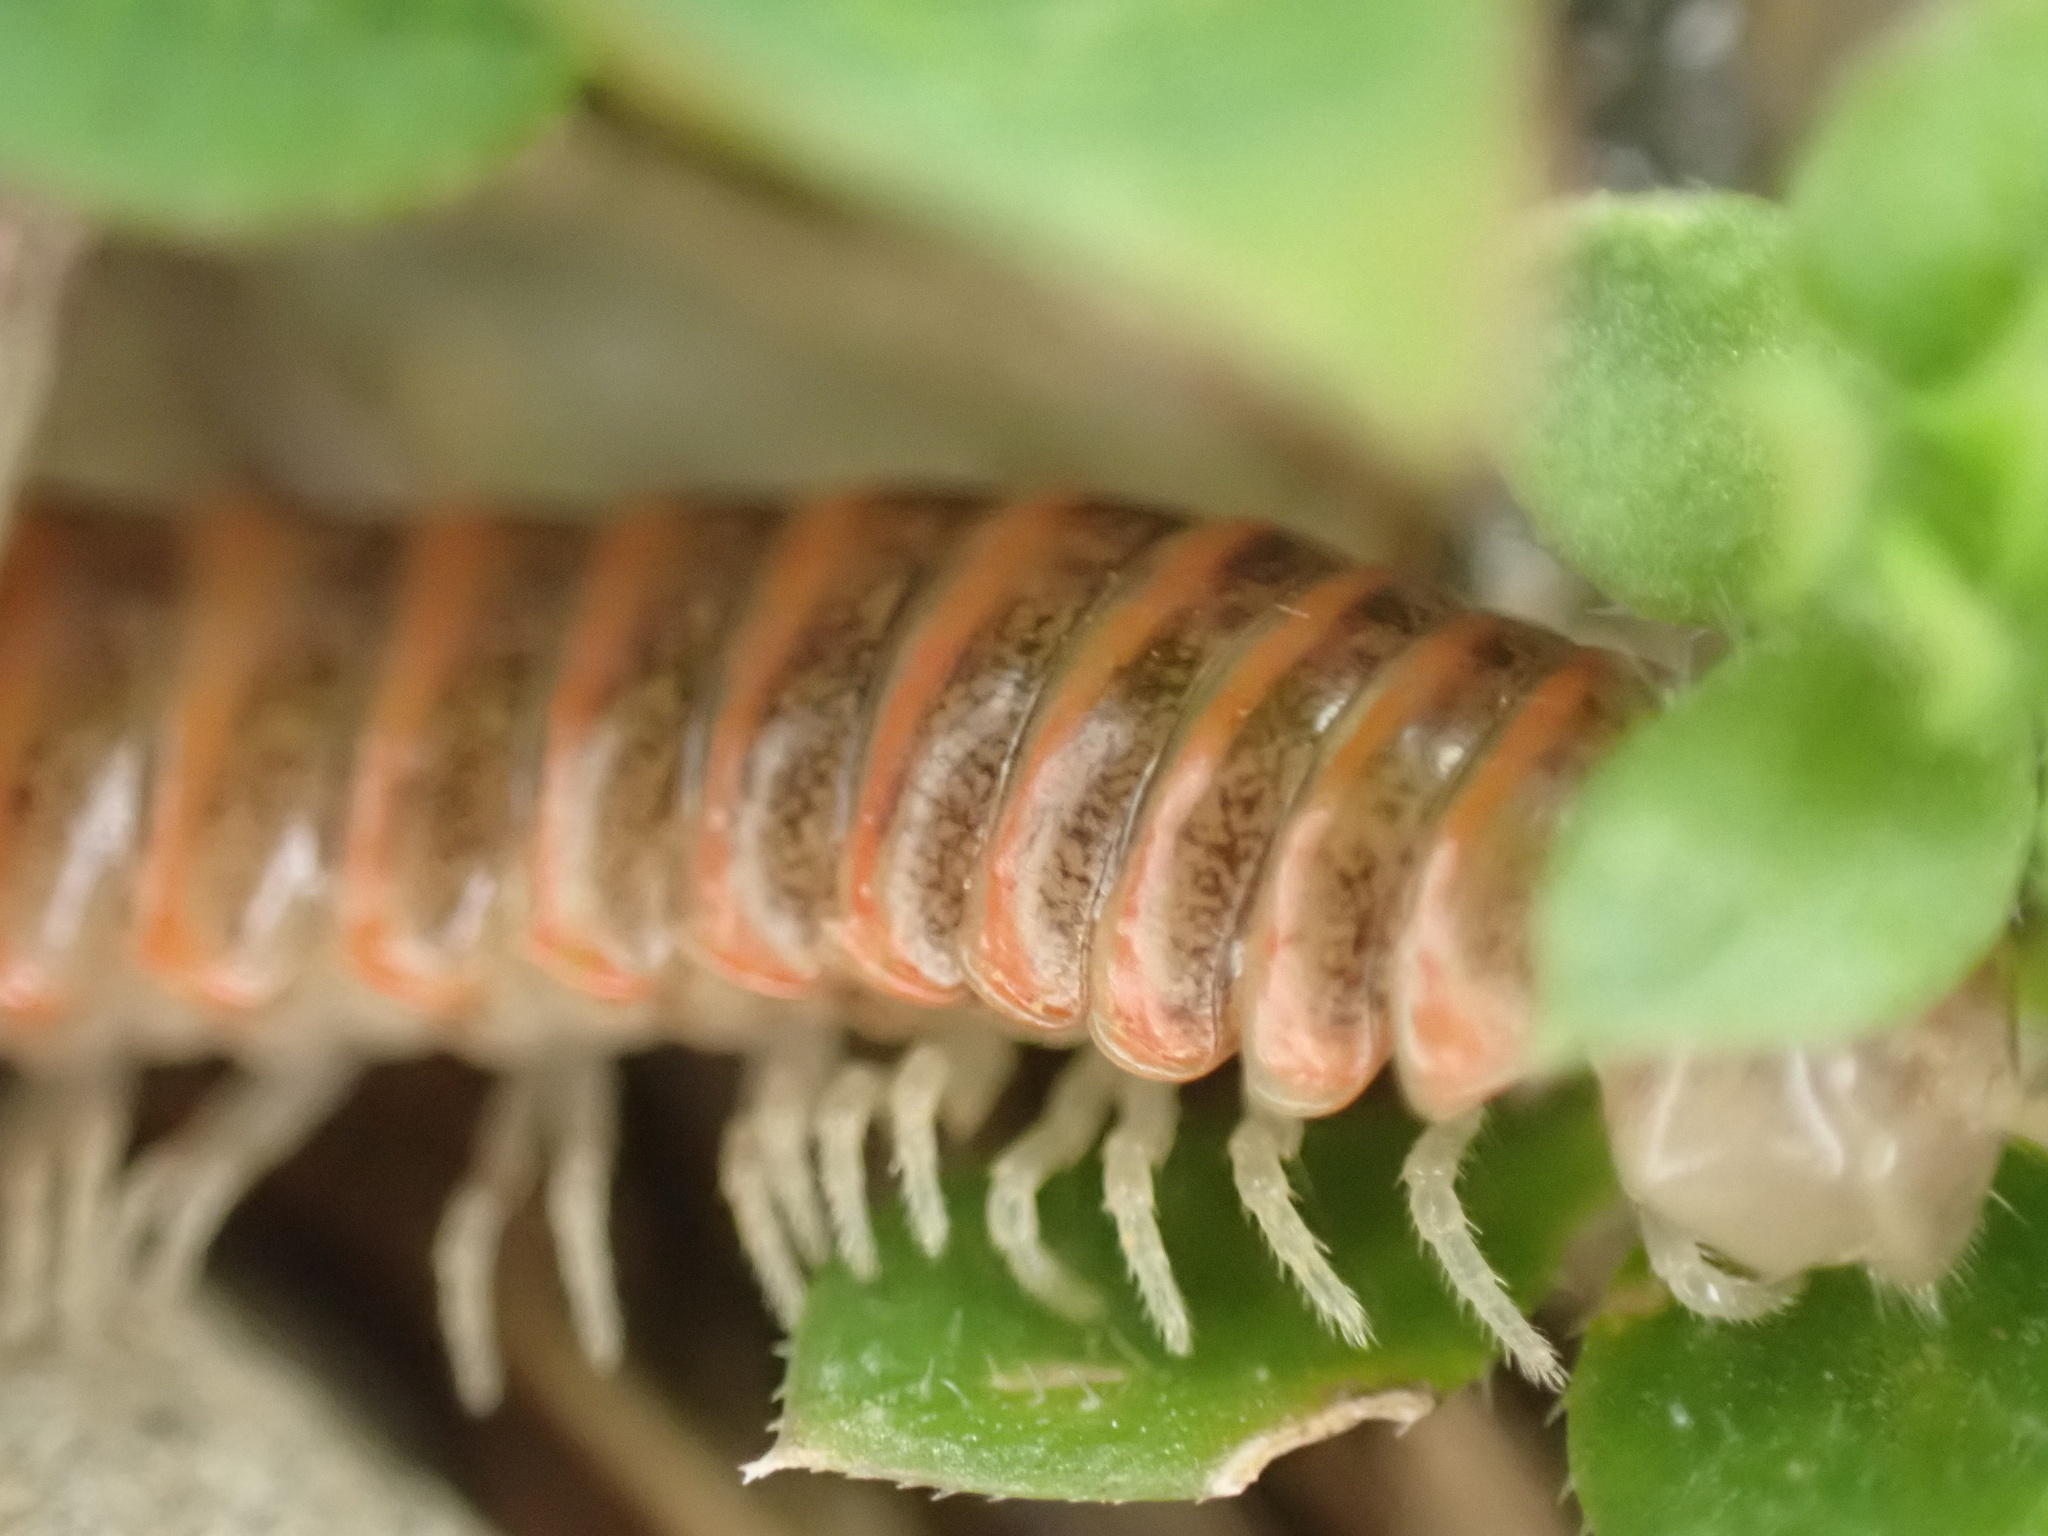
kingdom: Animalia
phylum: Arthropoda
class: Diplopoda
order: Polydesmida
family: Xystodesmidae
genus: Oenomaea
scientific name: Oenomaea pulchella
